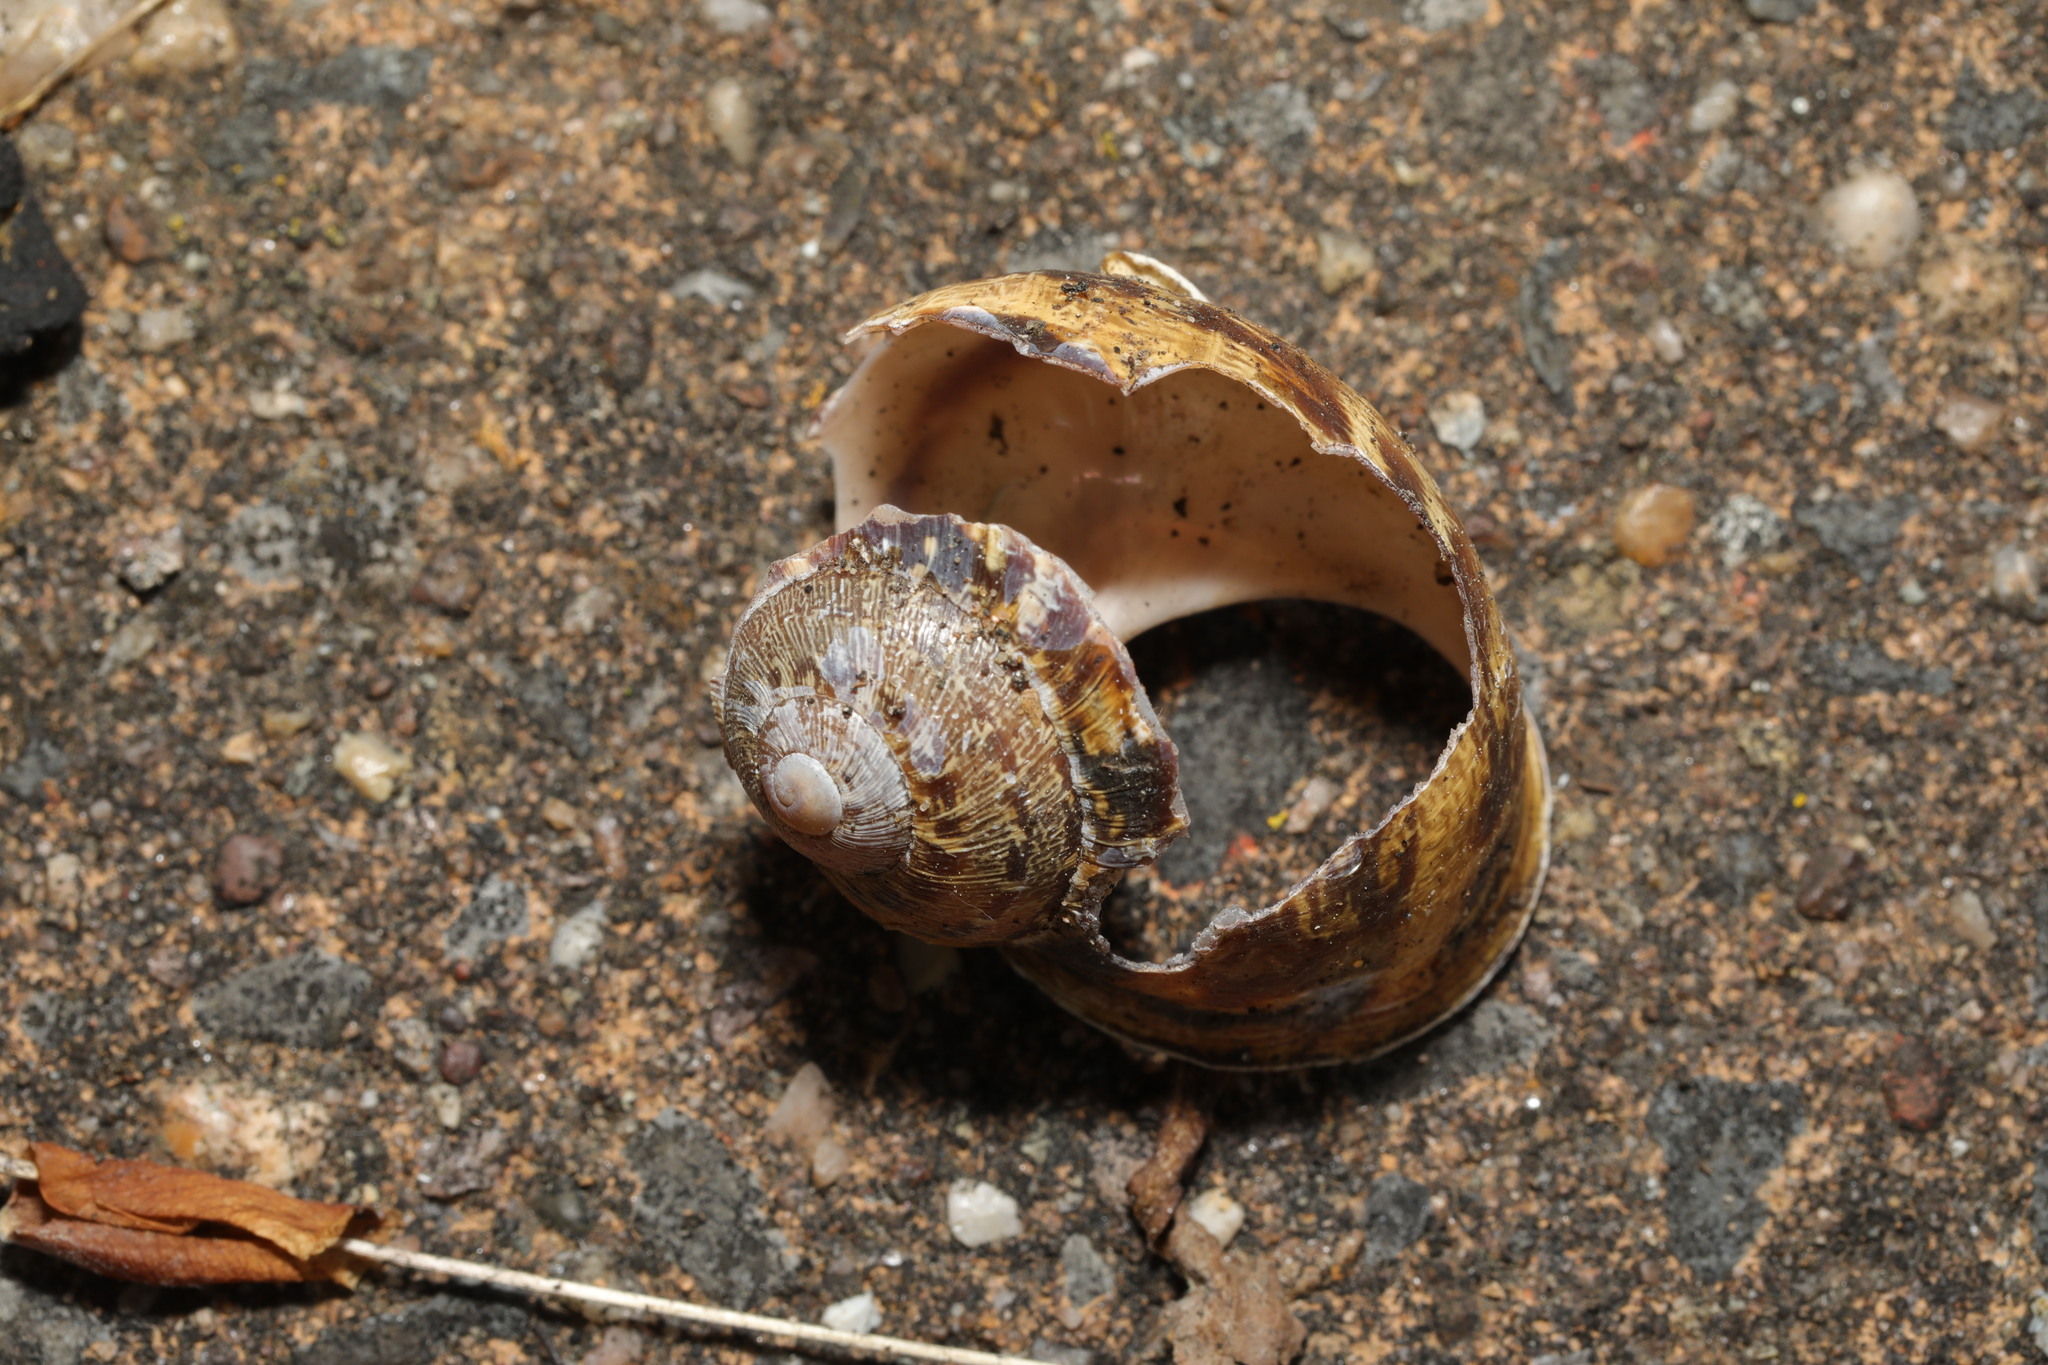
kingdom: Animalia
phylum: Mollusca
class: Gastropoda
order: Stylommatophora
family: Helicidae
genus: Cornu
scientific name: Cornu aspersum
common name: Brown garden snail
